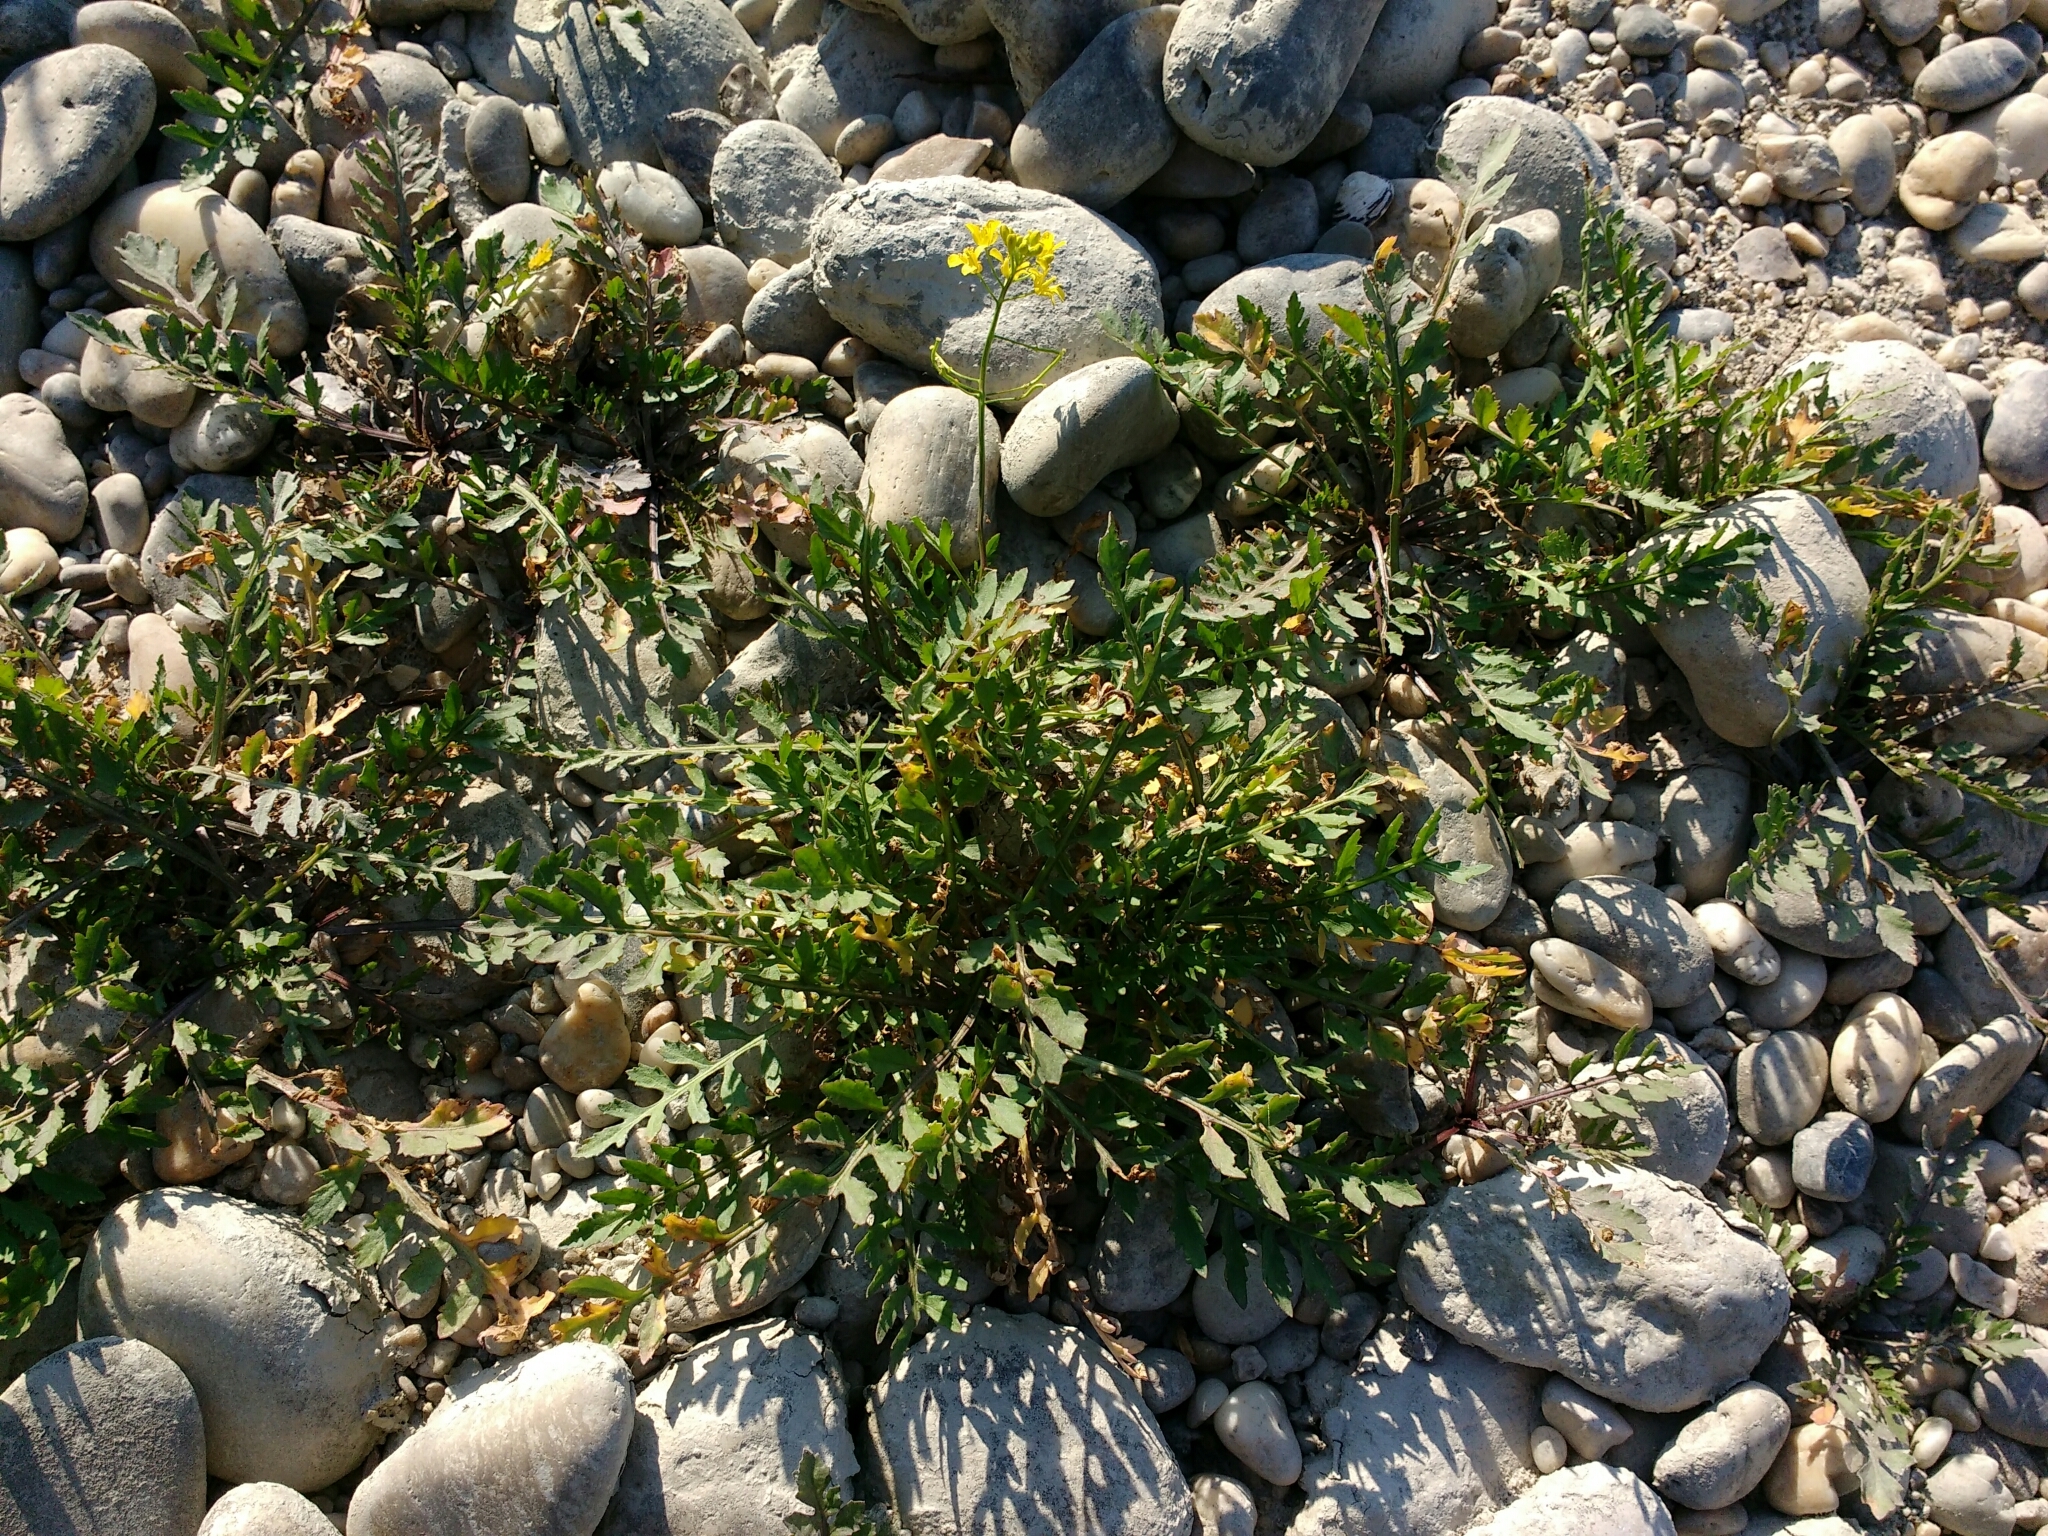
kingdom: Plantae
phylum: Tracheophyta
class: Magnoliopsida
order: Brassicales
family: Brassicaceae
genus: Rorippa
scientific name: Rorippa sylvestris
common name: Creeping yellowcress
